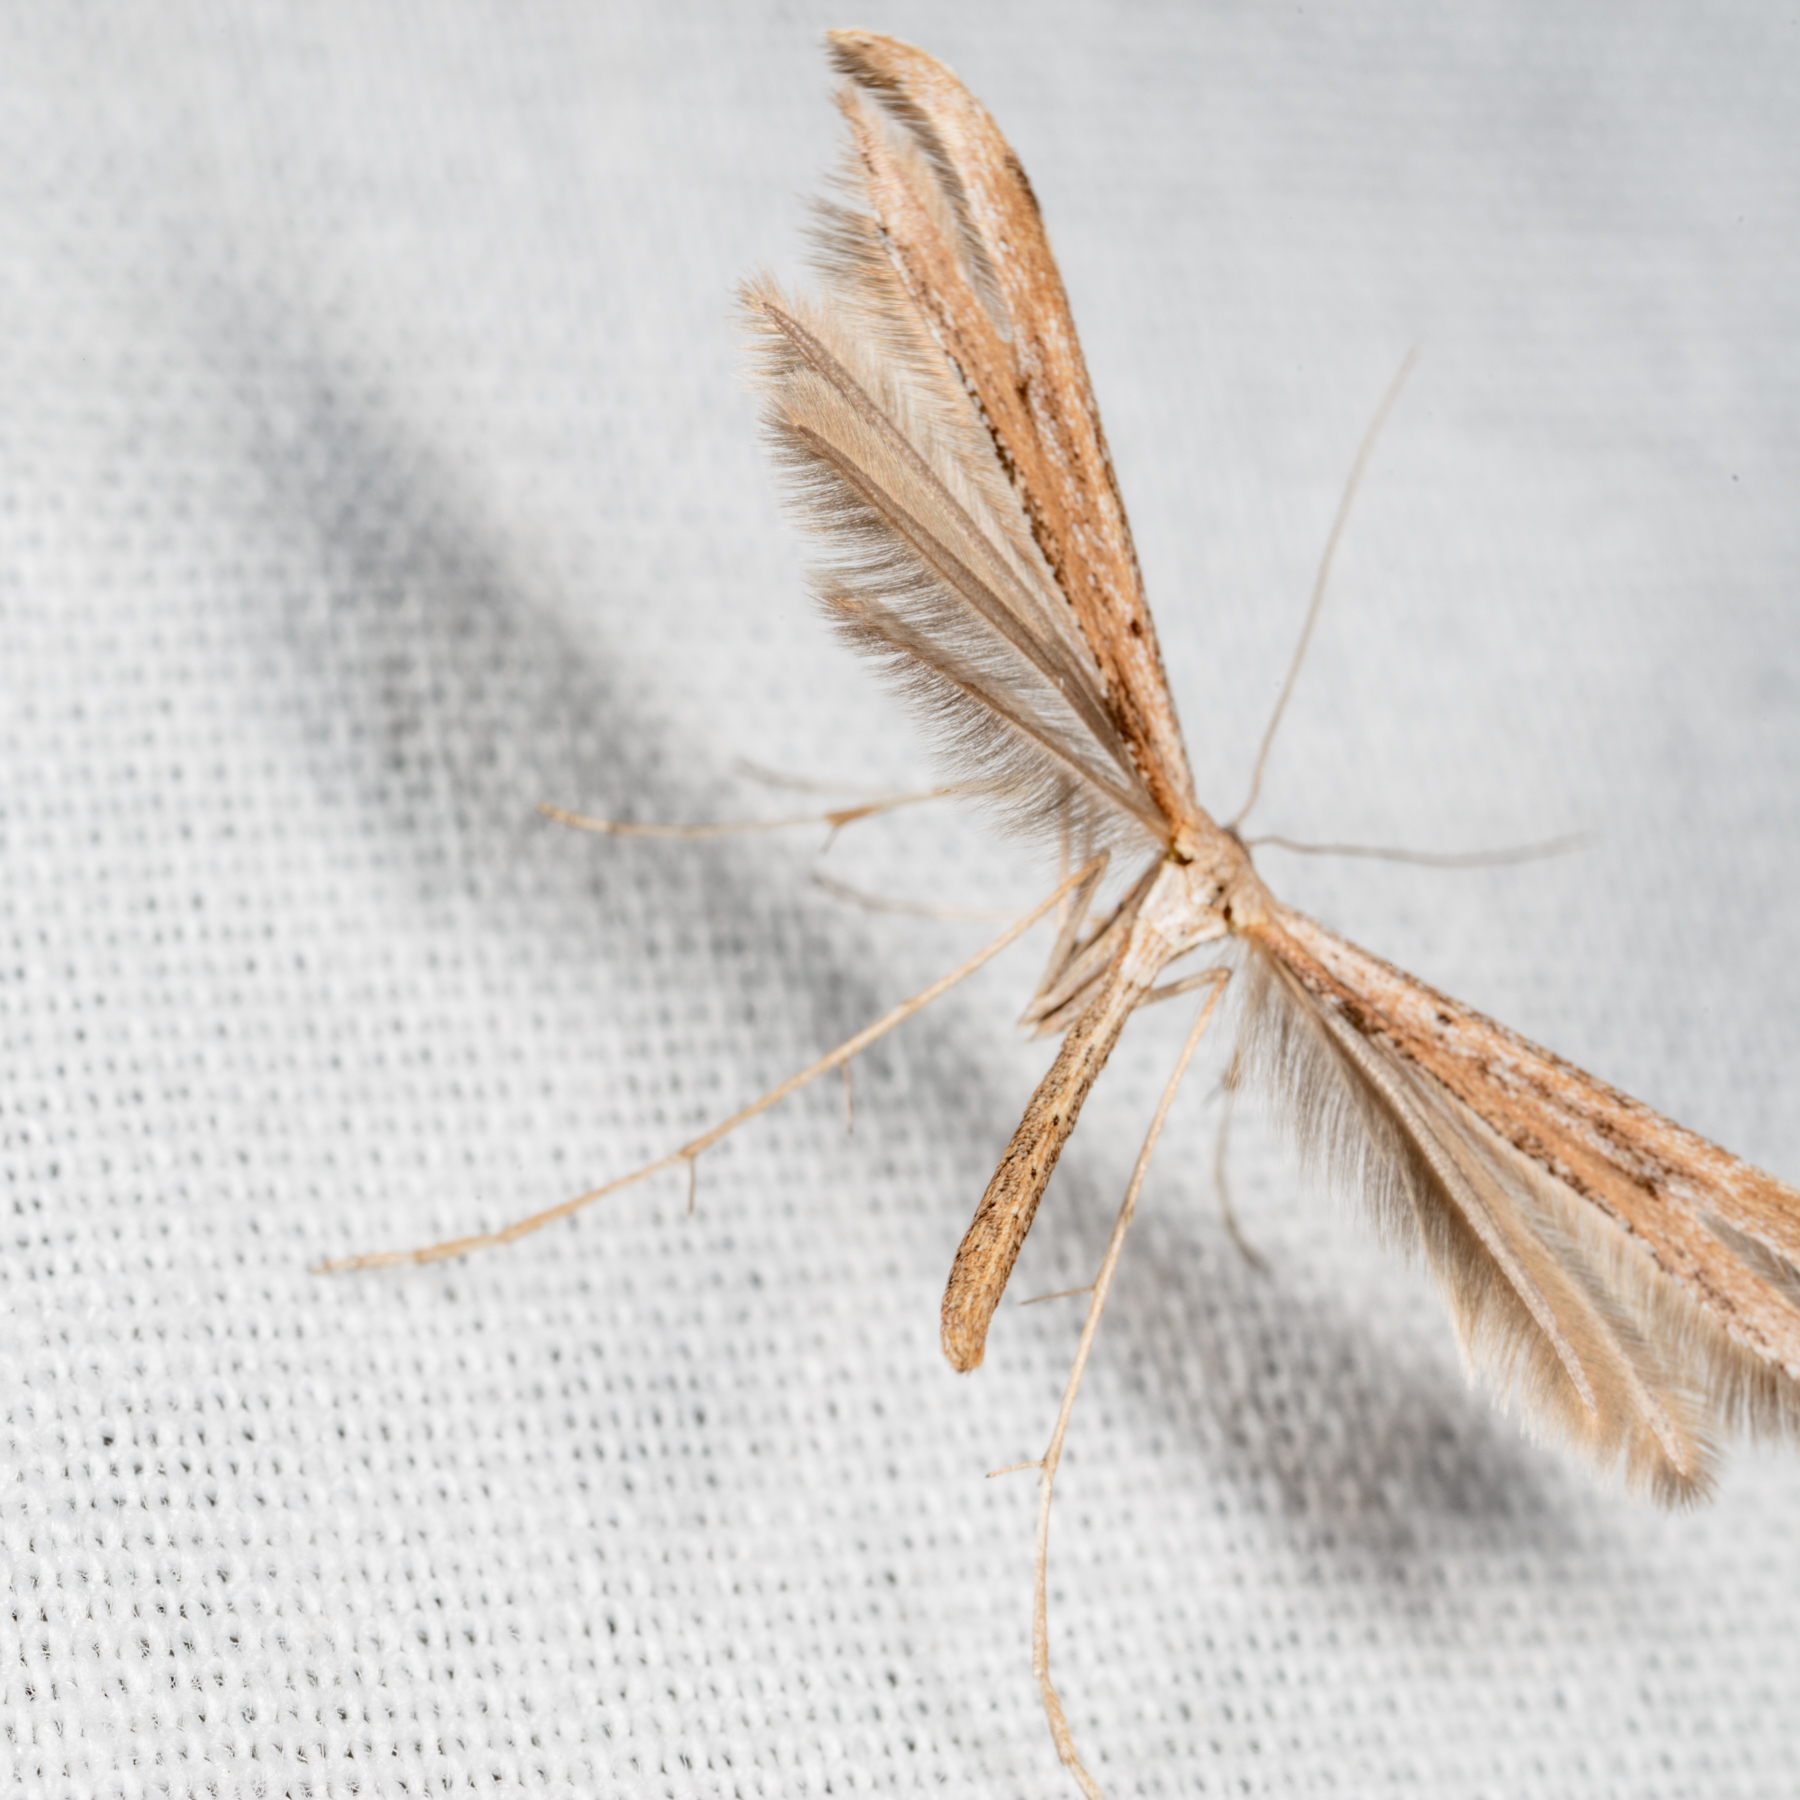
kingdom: Animalia
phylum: Arthropoda
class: Insecta
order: Lepidoptera
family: Pterophoridae
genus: Emmelina
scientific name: Emmelina monodactyla
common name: Common plume
